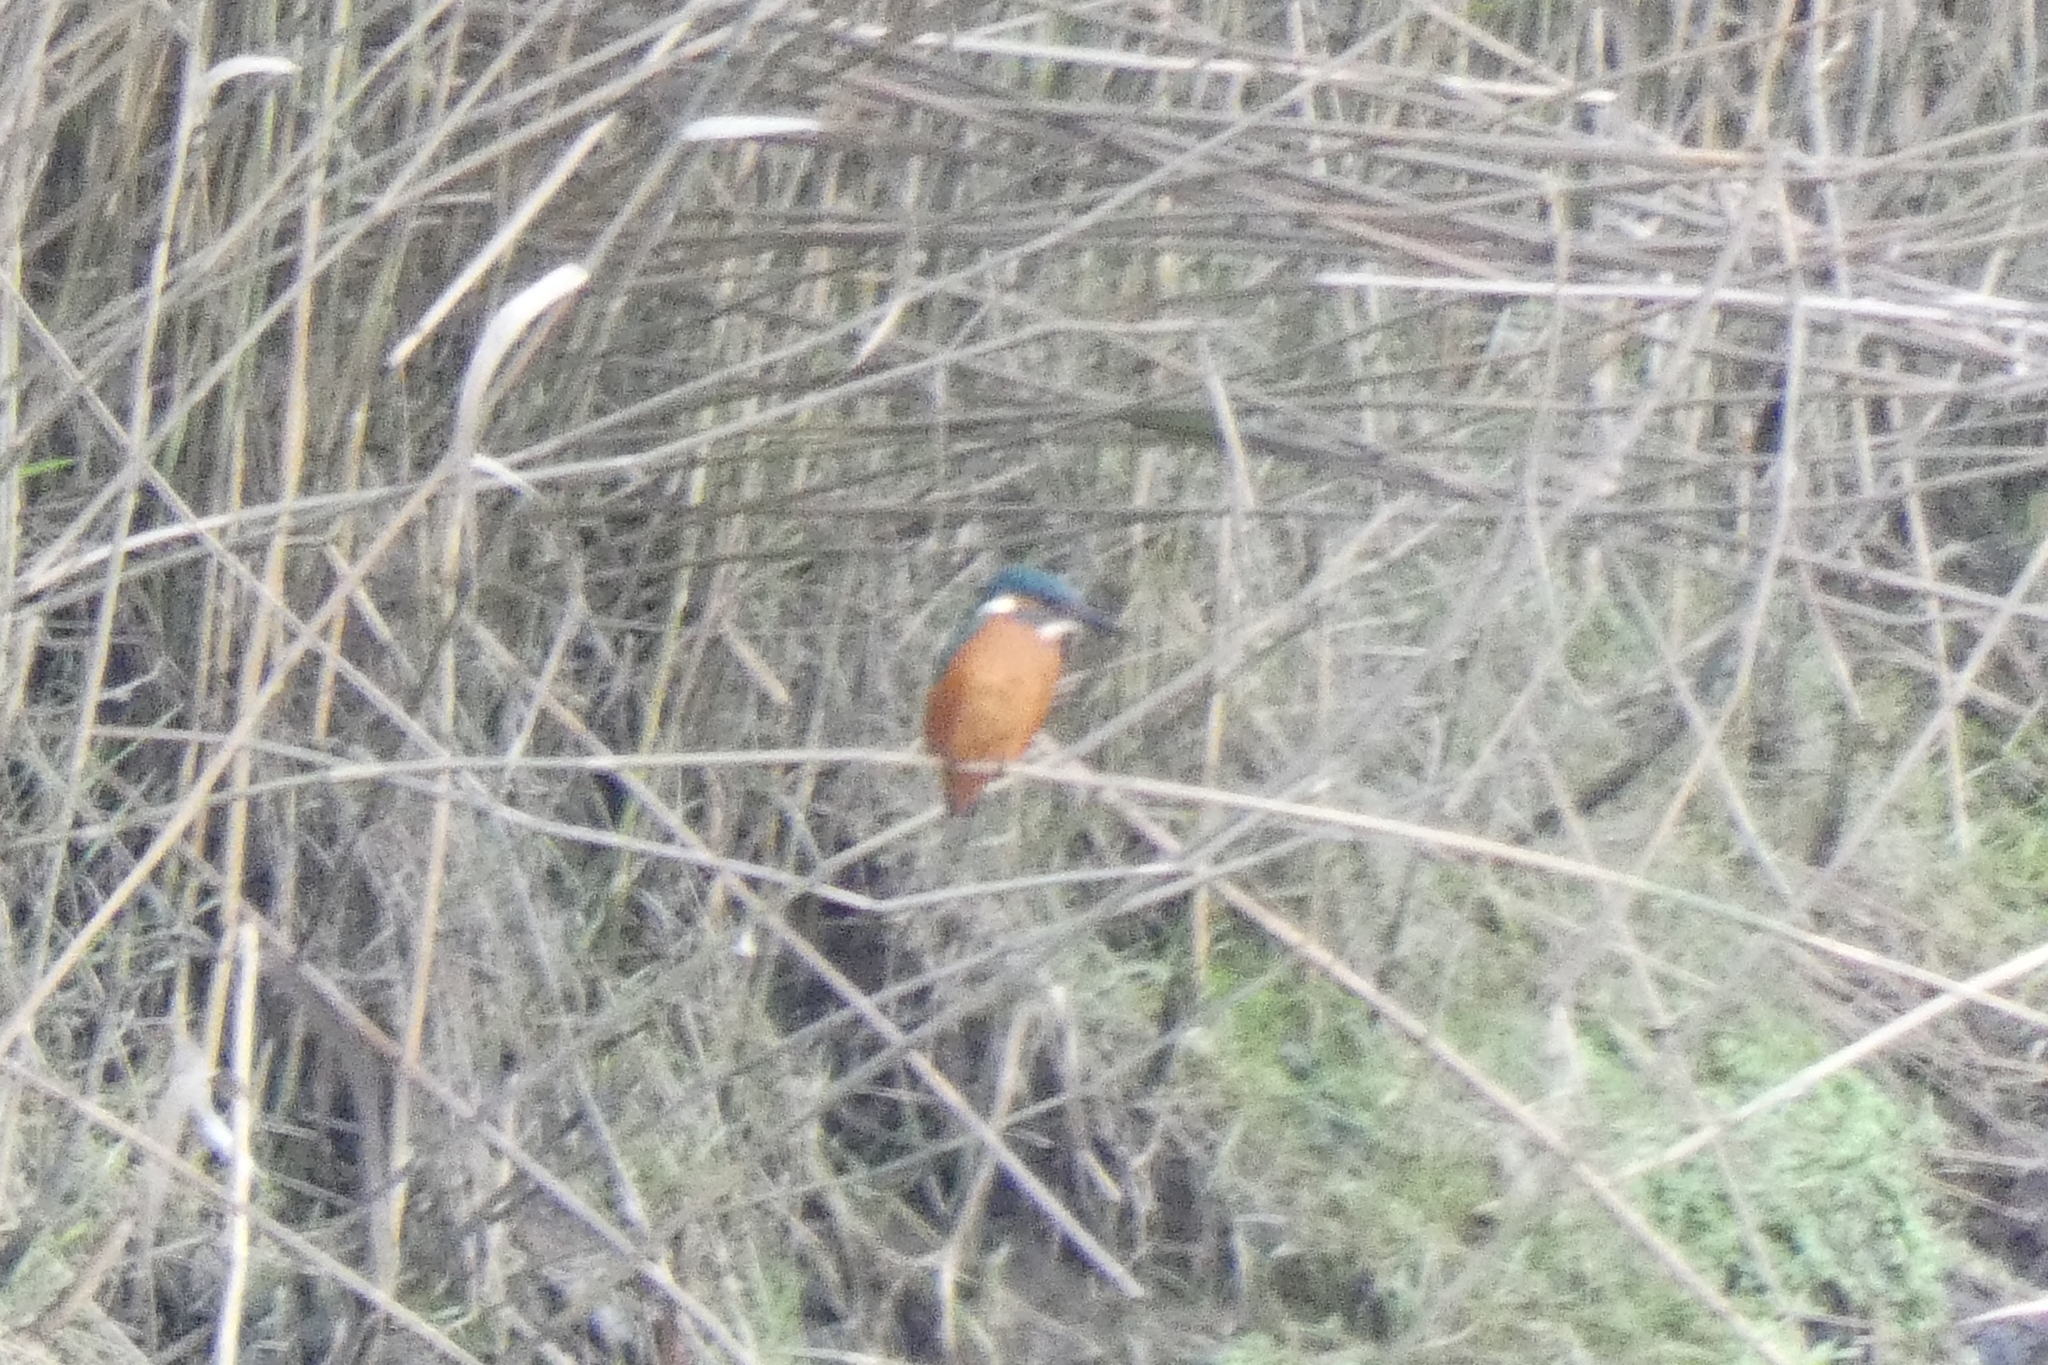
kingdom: Animalia
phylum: Chordata
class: Aves
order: Coraciiformes
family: Alcedinidae
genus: Alcedo
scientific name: Alcedo atthis
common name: Common kingfisher
